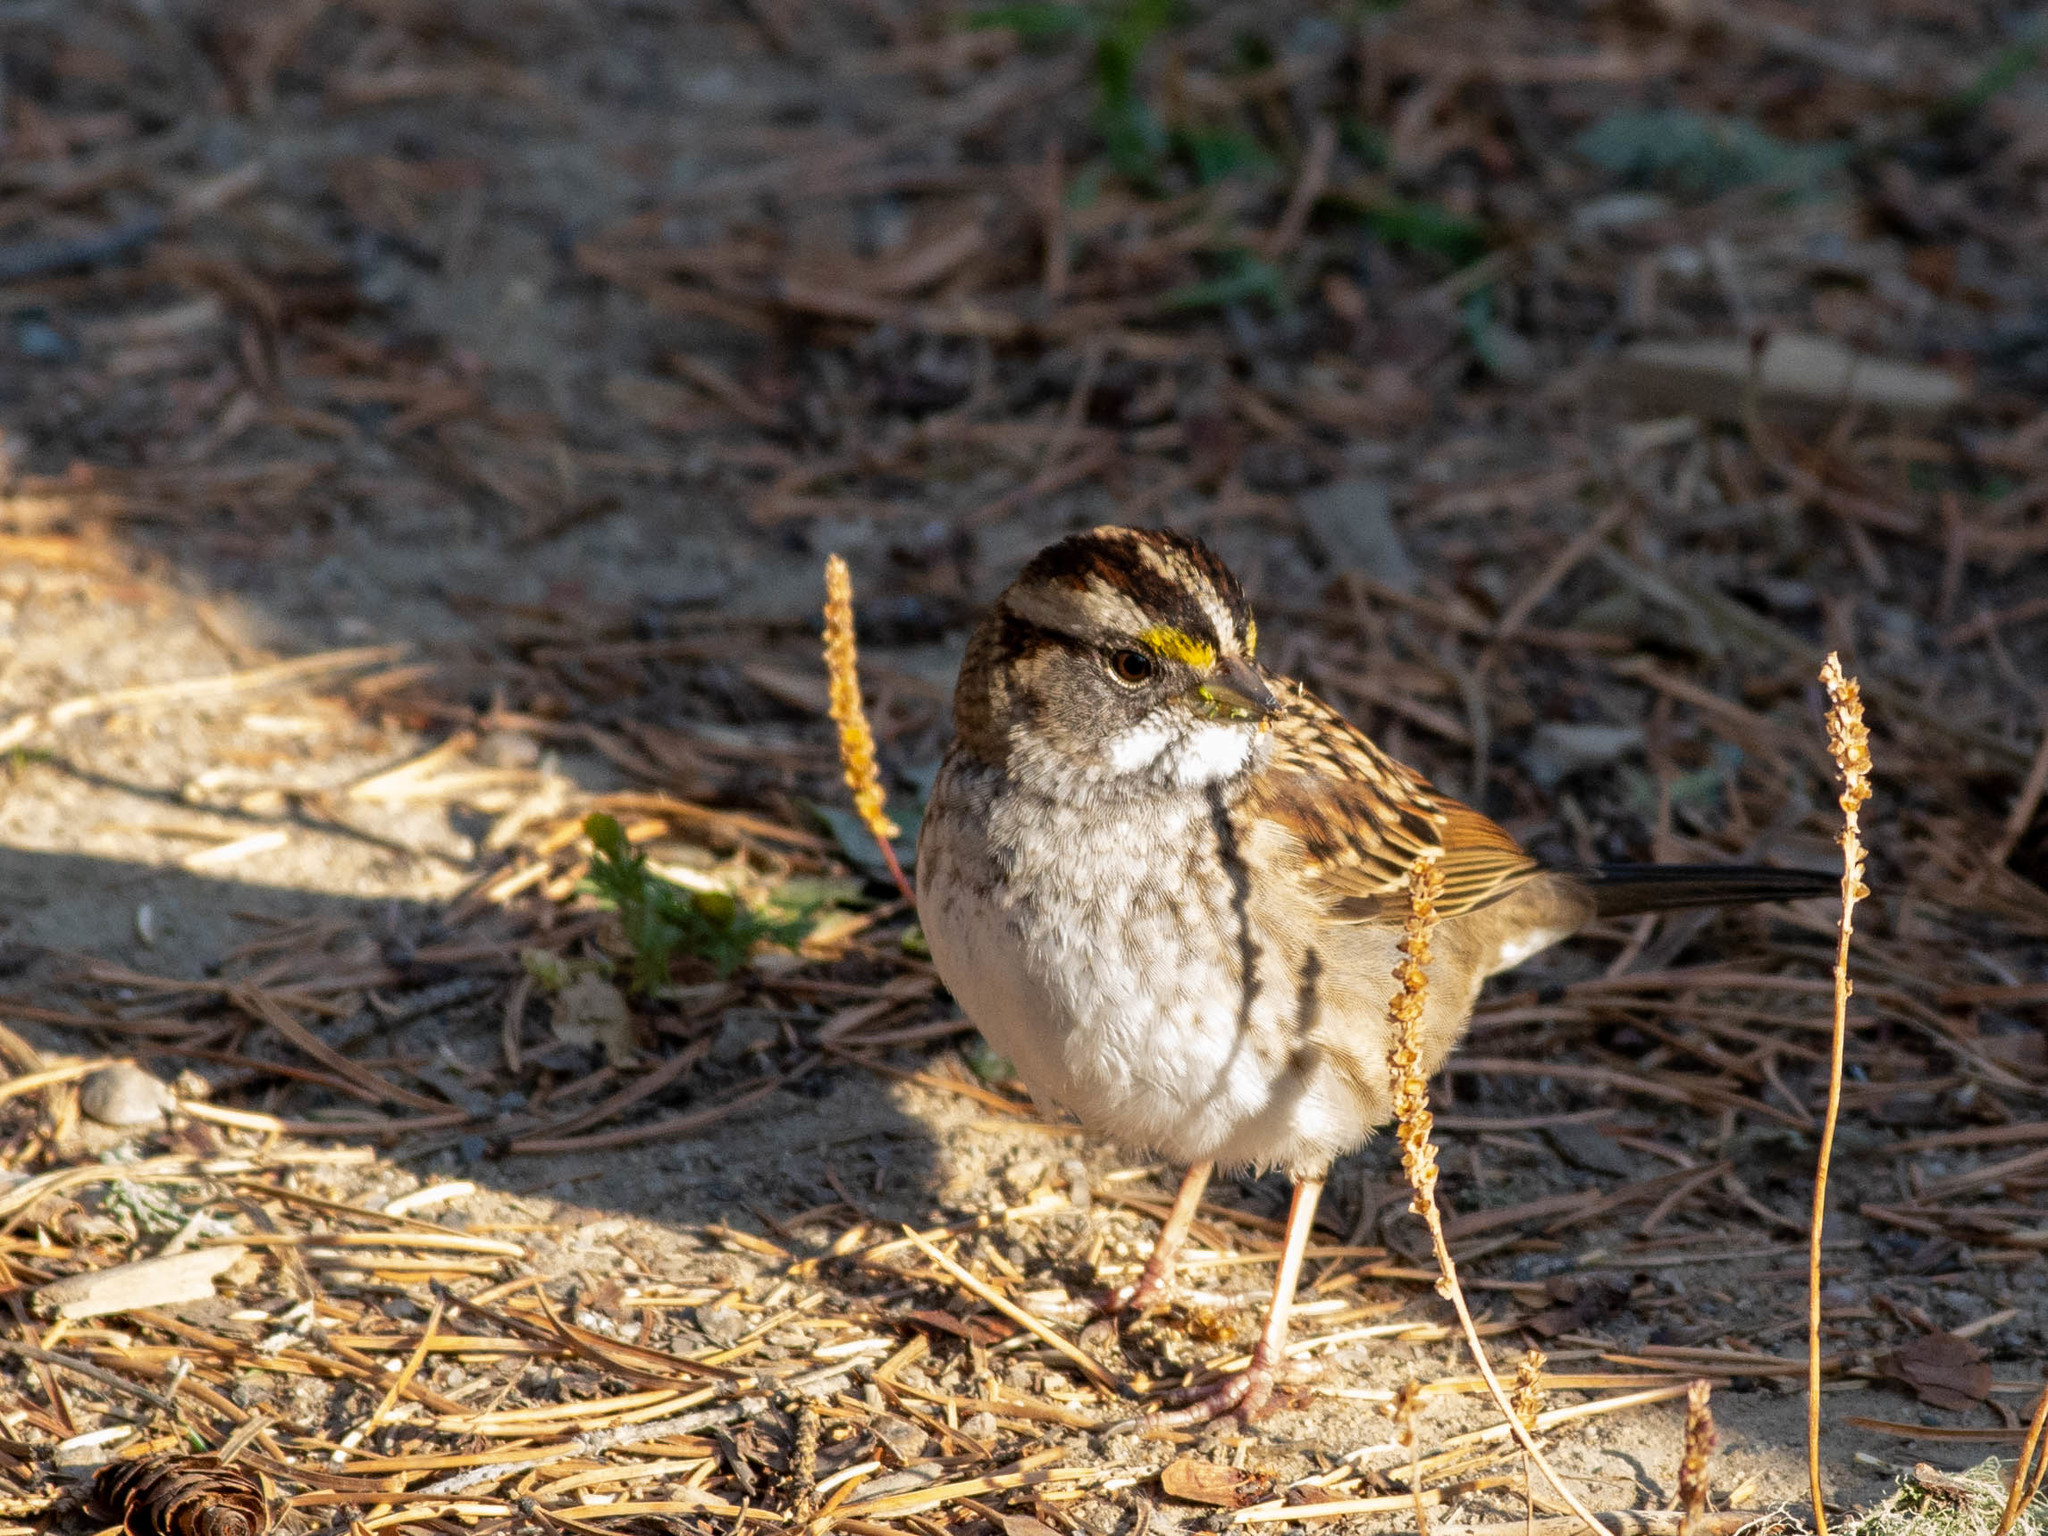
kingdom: Animalia
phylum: Chordata
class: Aves
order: Passeriformes
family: Passerellidae
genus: Zonotrichia
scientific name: Zonotrichia albicollis
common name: White-throated sparrow
